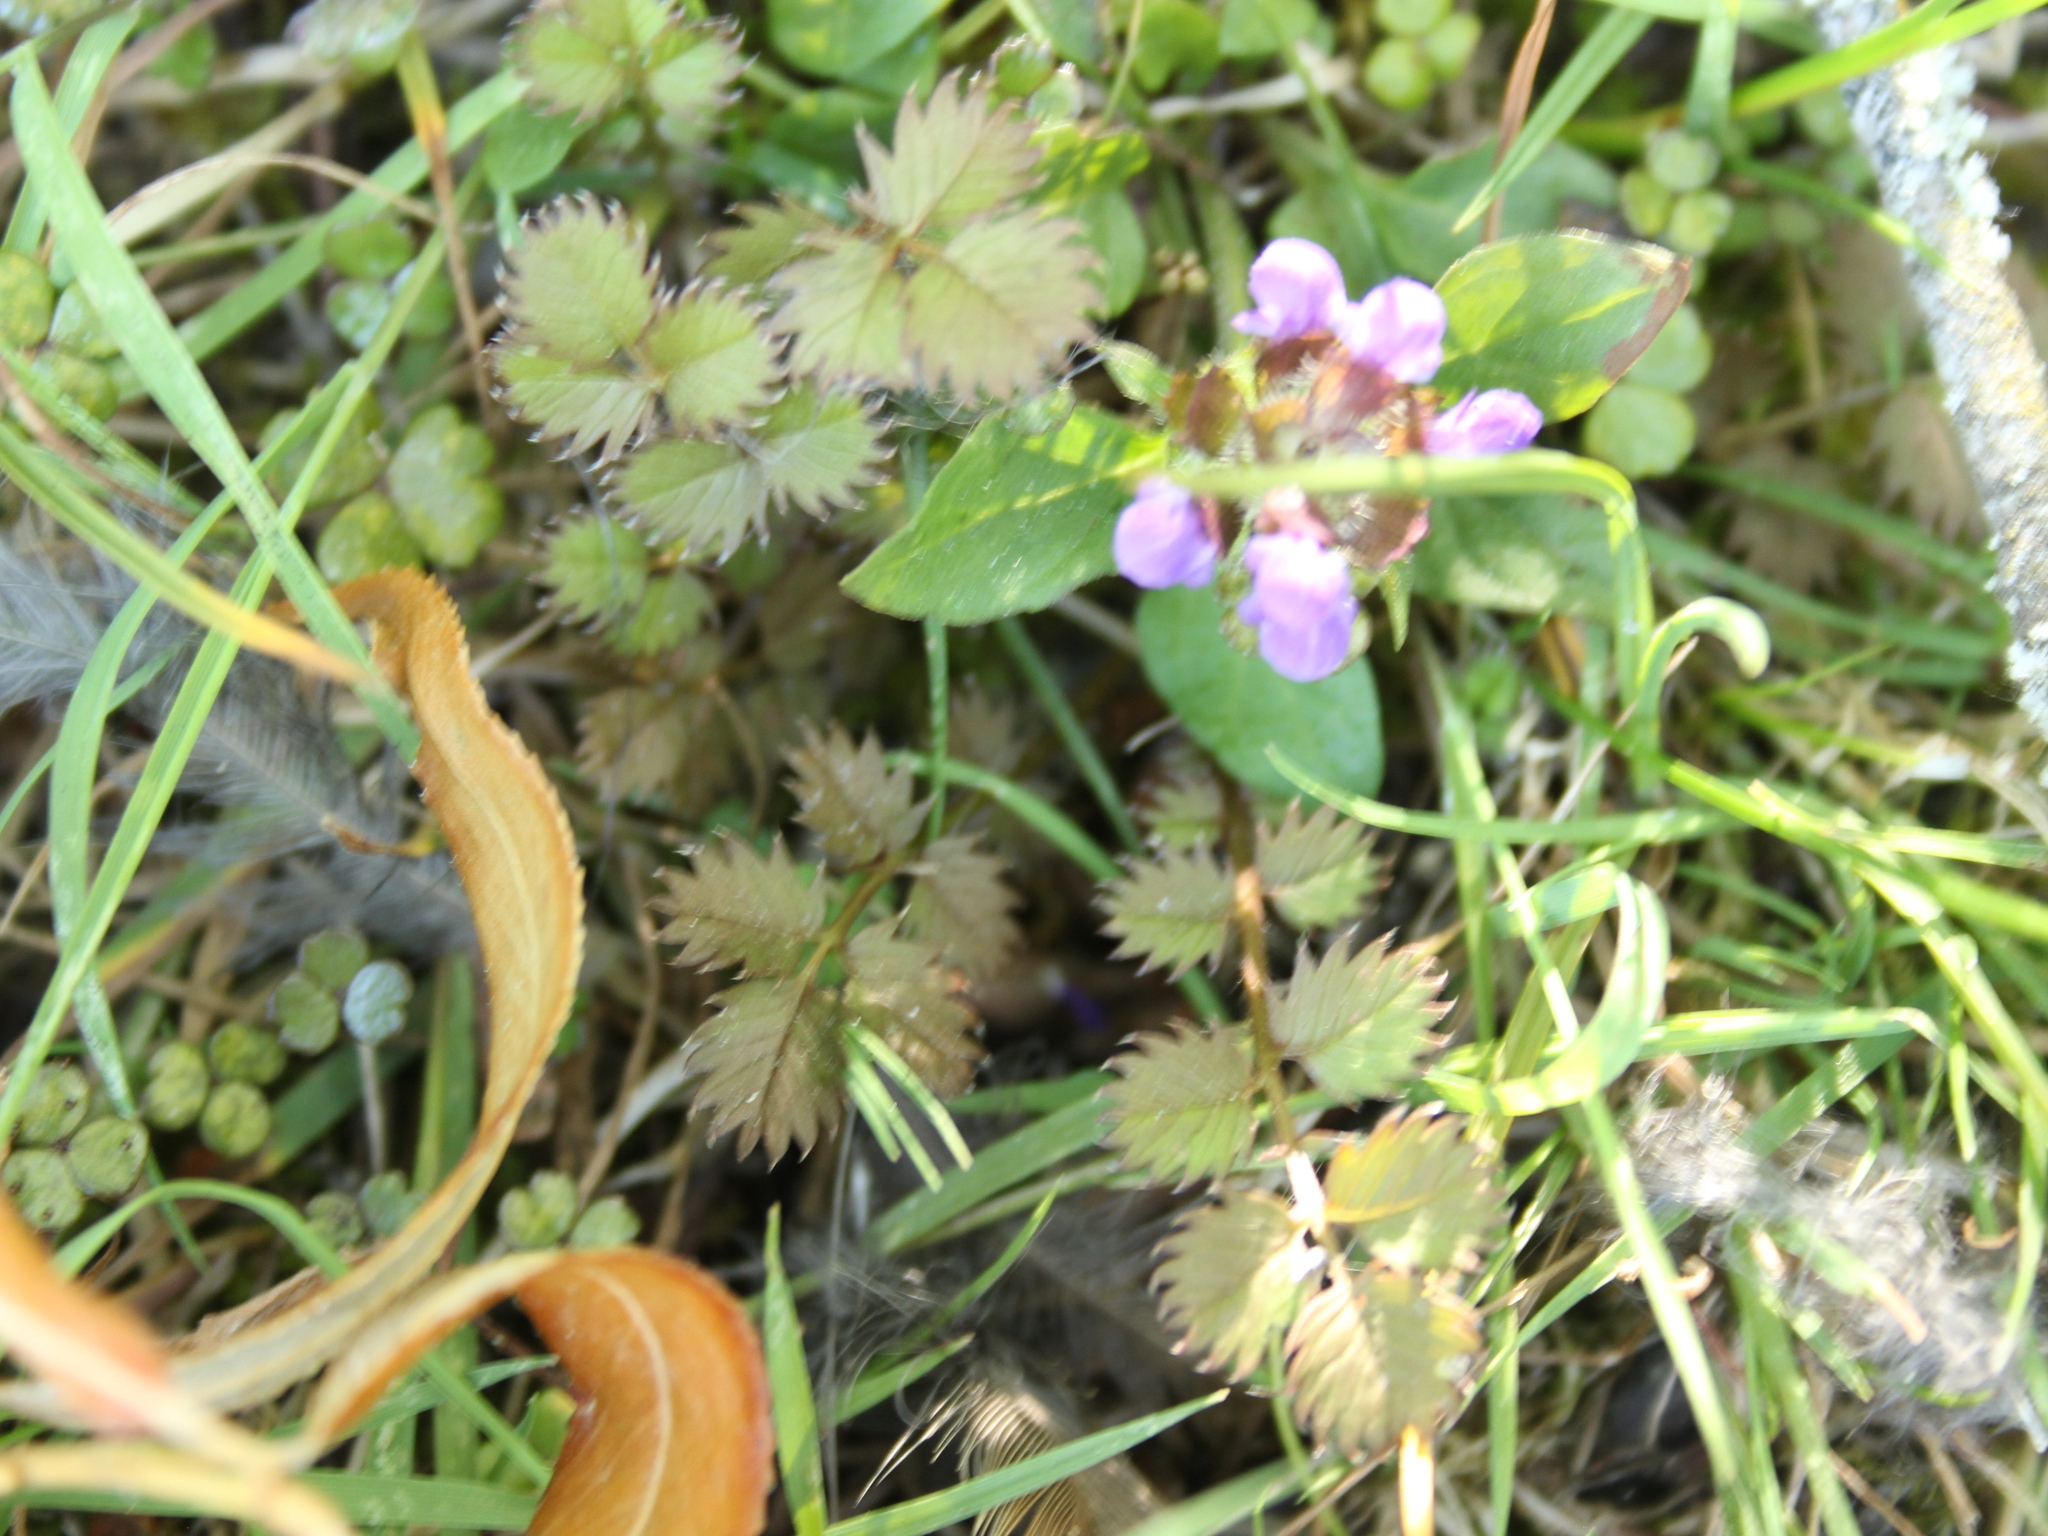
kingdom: Plantae
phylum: Tracheophyta
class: Magnoliopsida
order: Rosales
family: Rosaceae
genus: Argentina
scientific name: Argentina anserinoides
